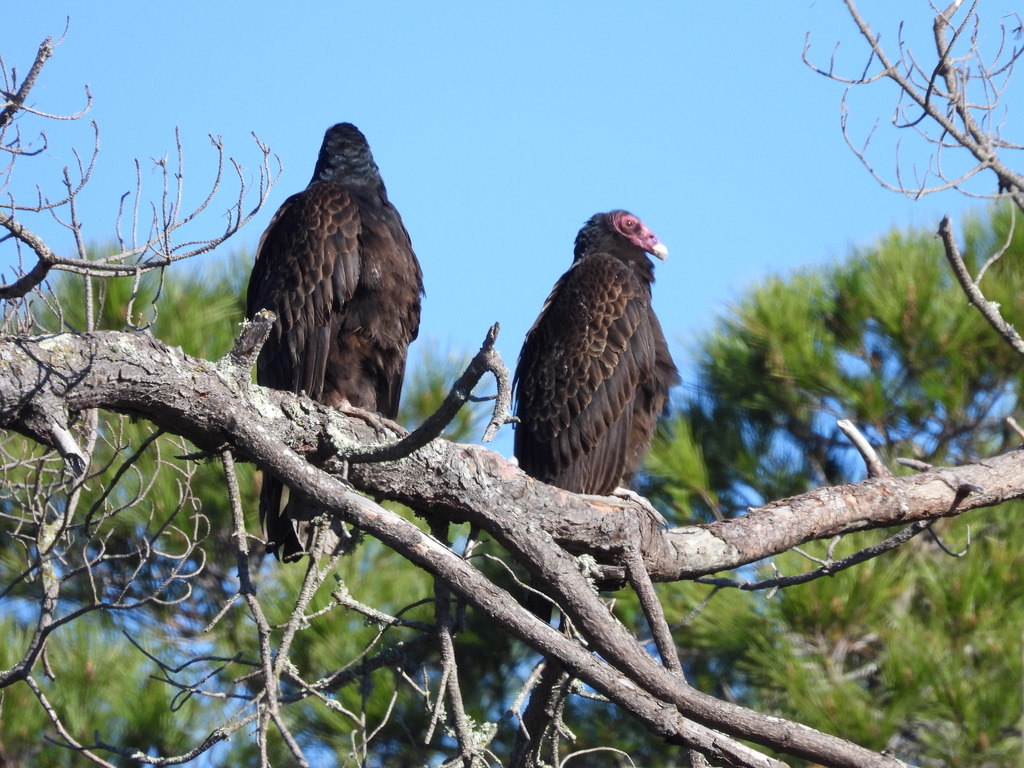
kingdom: Animalia
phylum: Chordata
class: Aves
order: Accipitriformes
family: Cathartidae
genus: Cathartes
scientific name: Cathartes aura
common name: Turkey vulture
